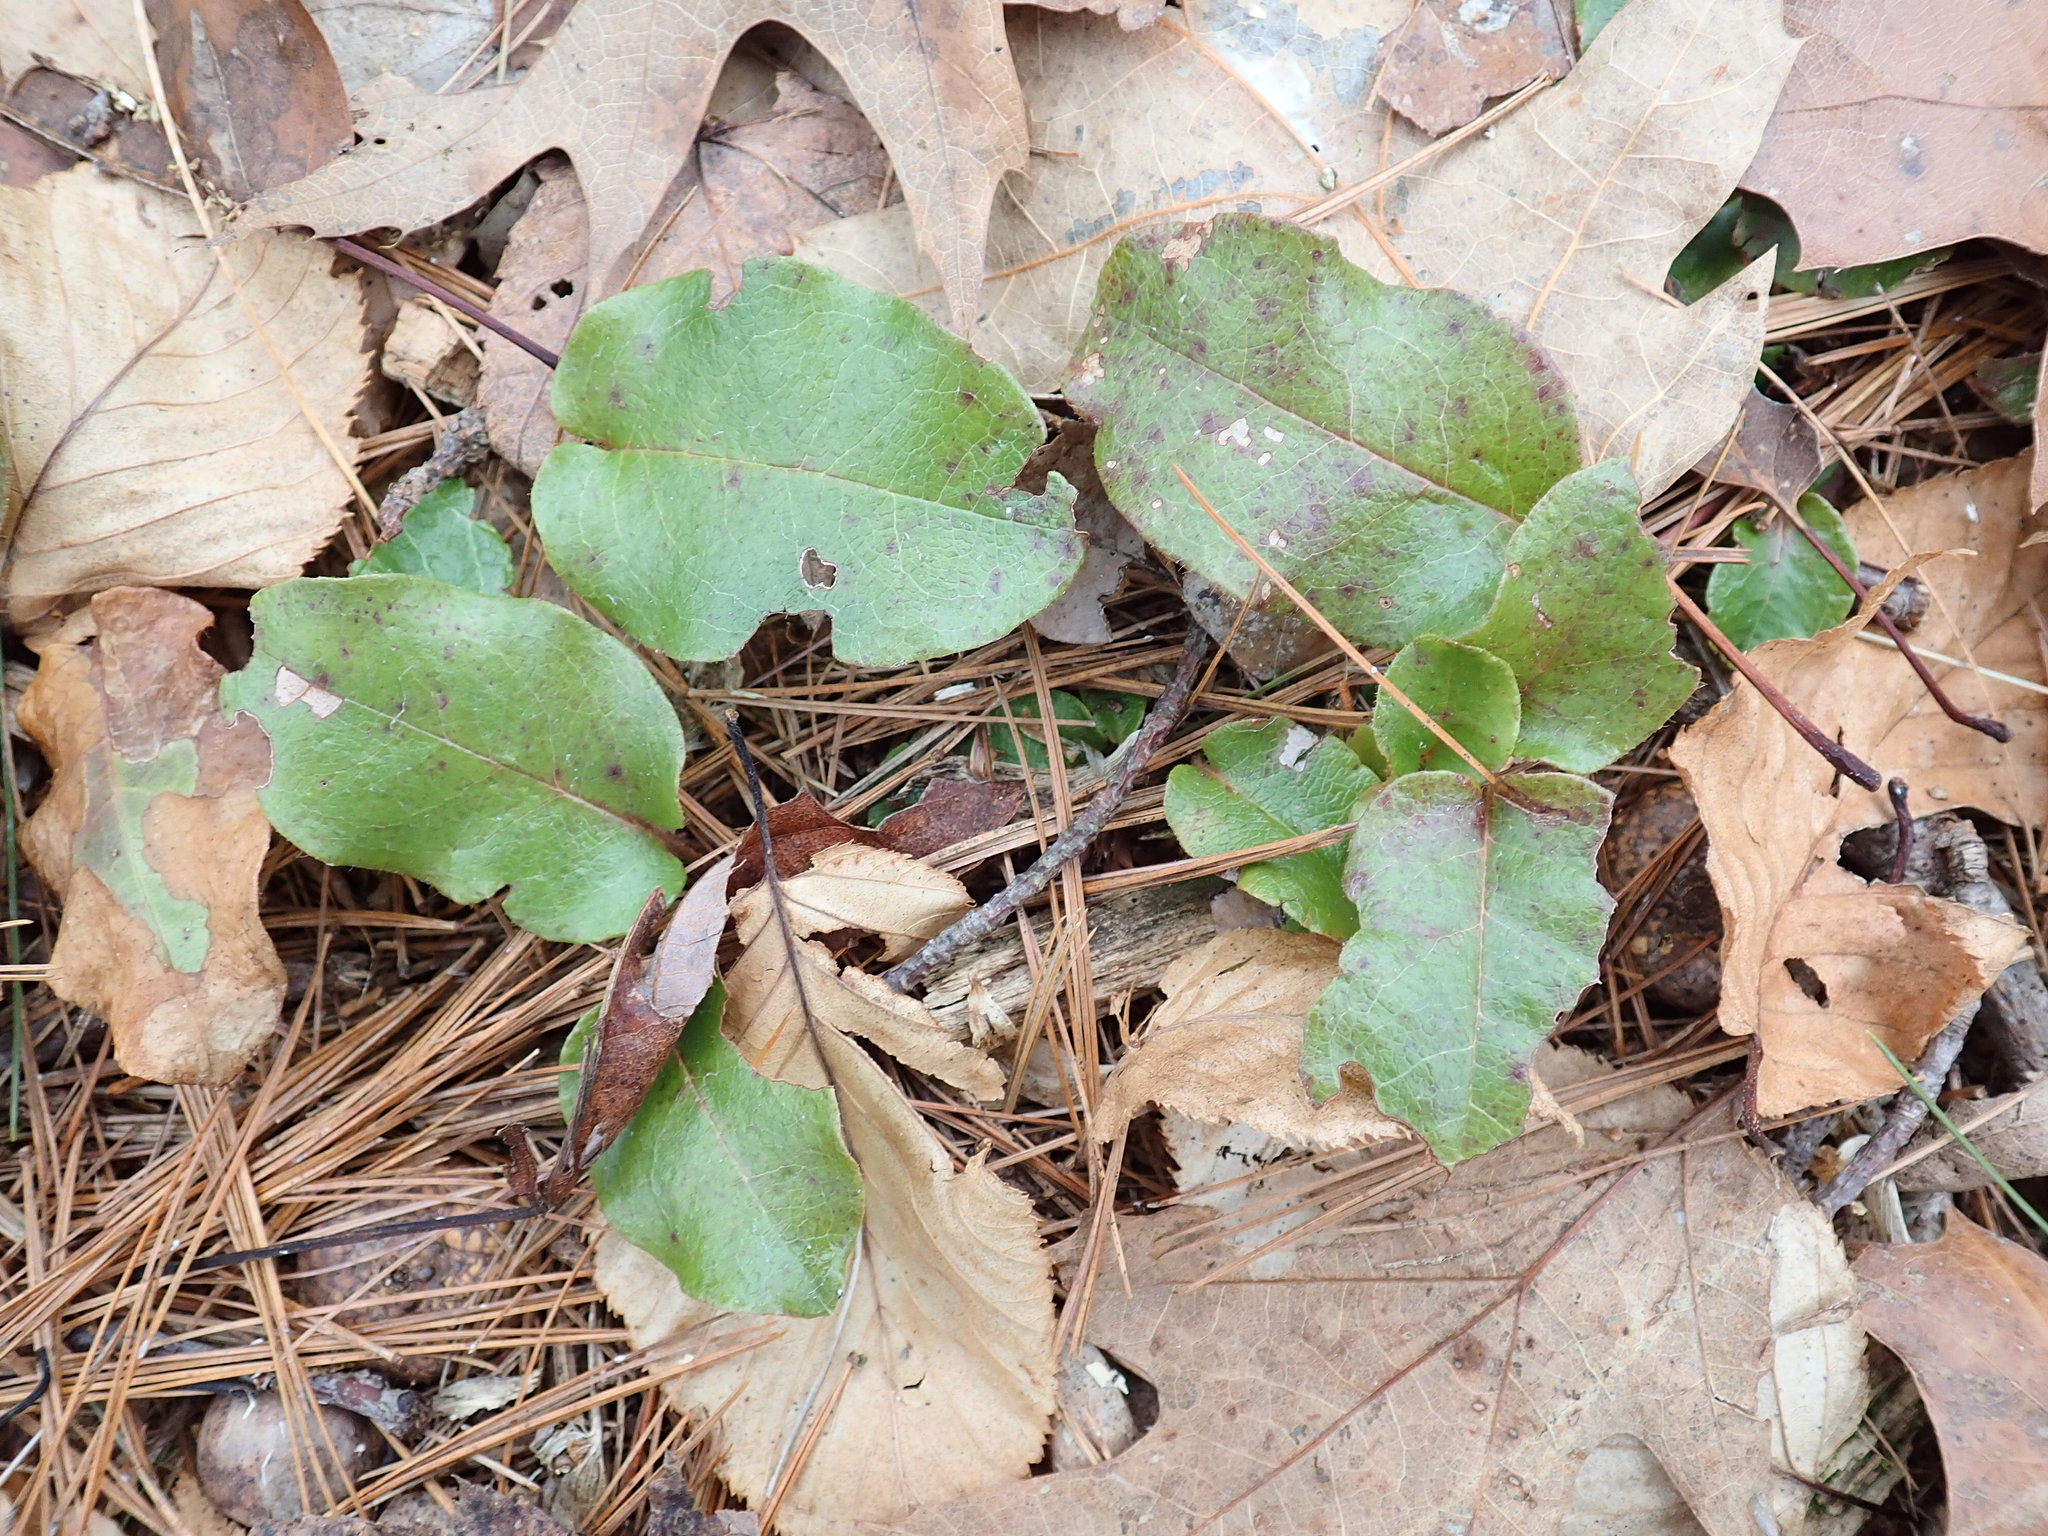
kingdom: Plantae
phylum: Tracheophyta
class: Magnoliopsida
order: Ericales
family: Ericaceae
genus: Epigaea
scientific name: Epigaea repens
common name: Gravelroot
